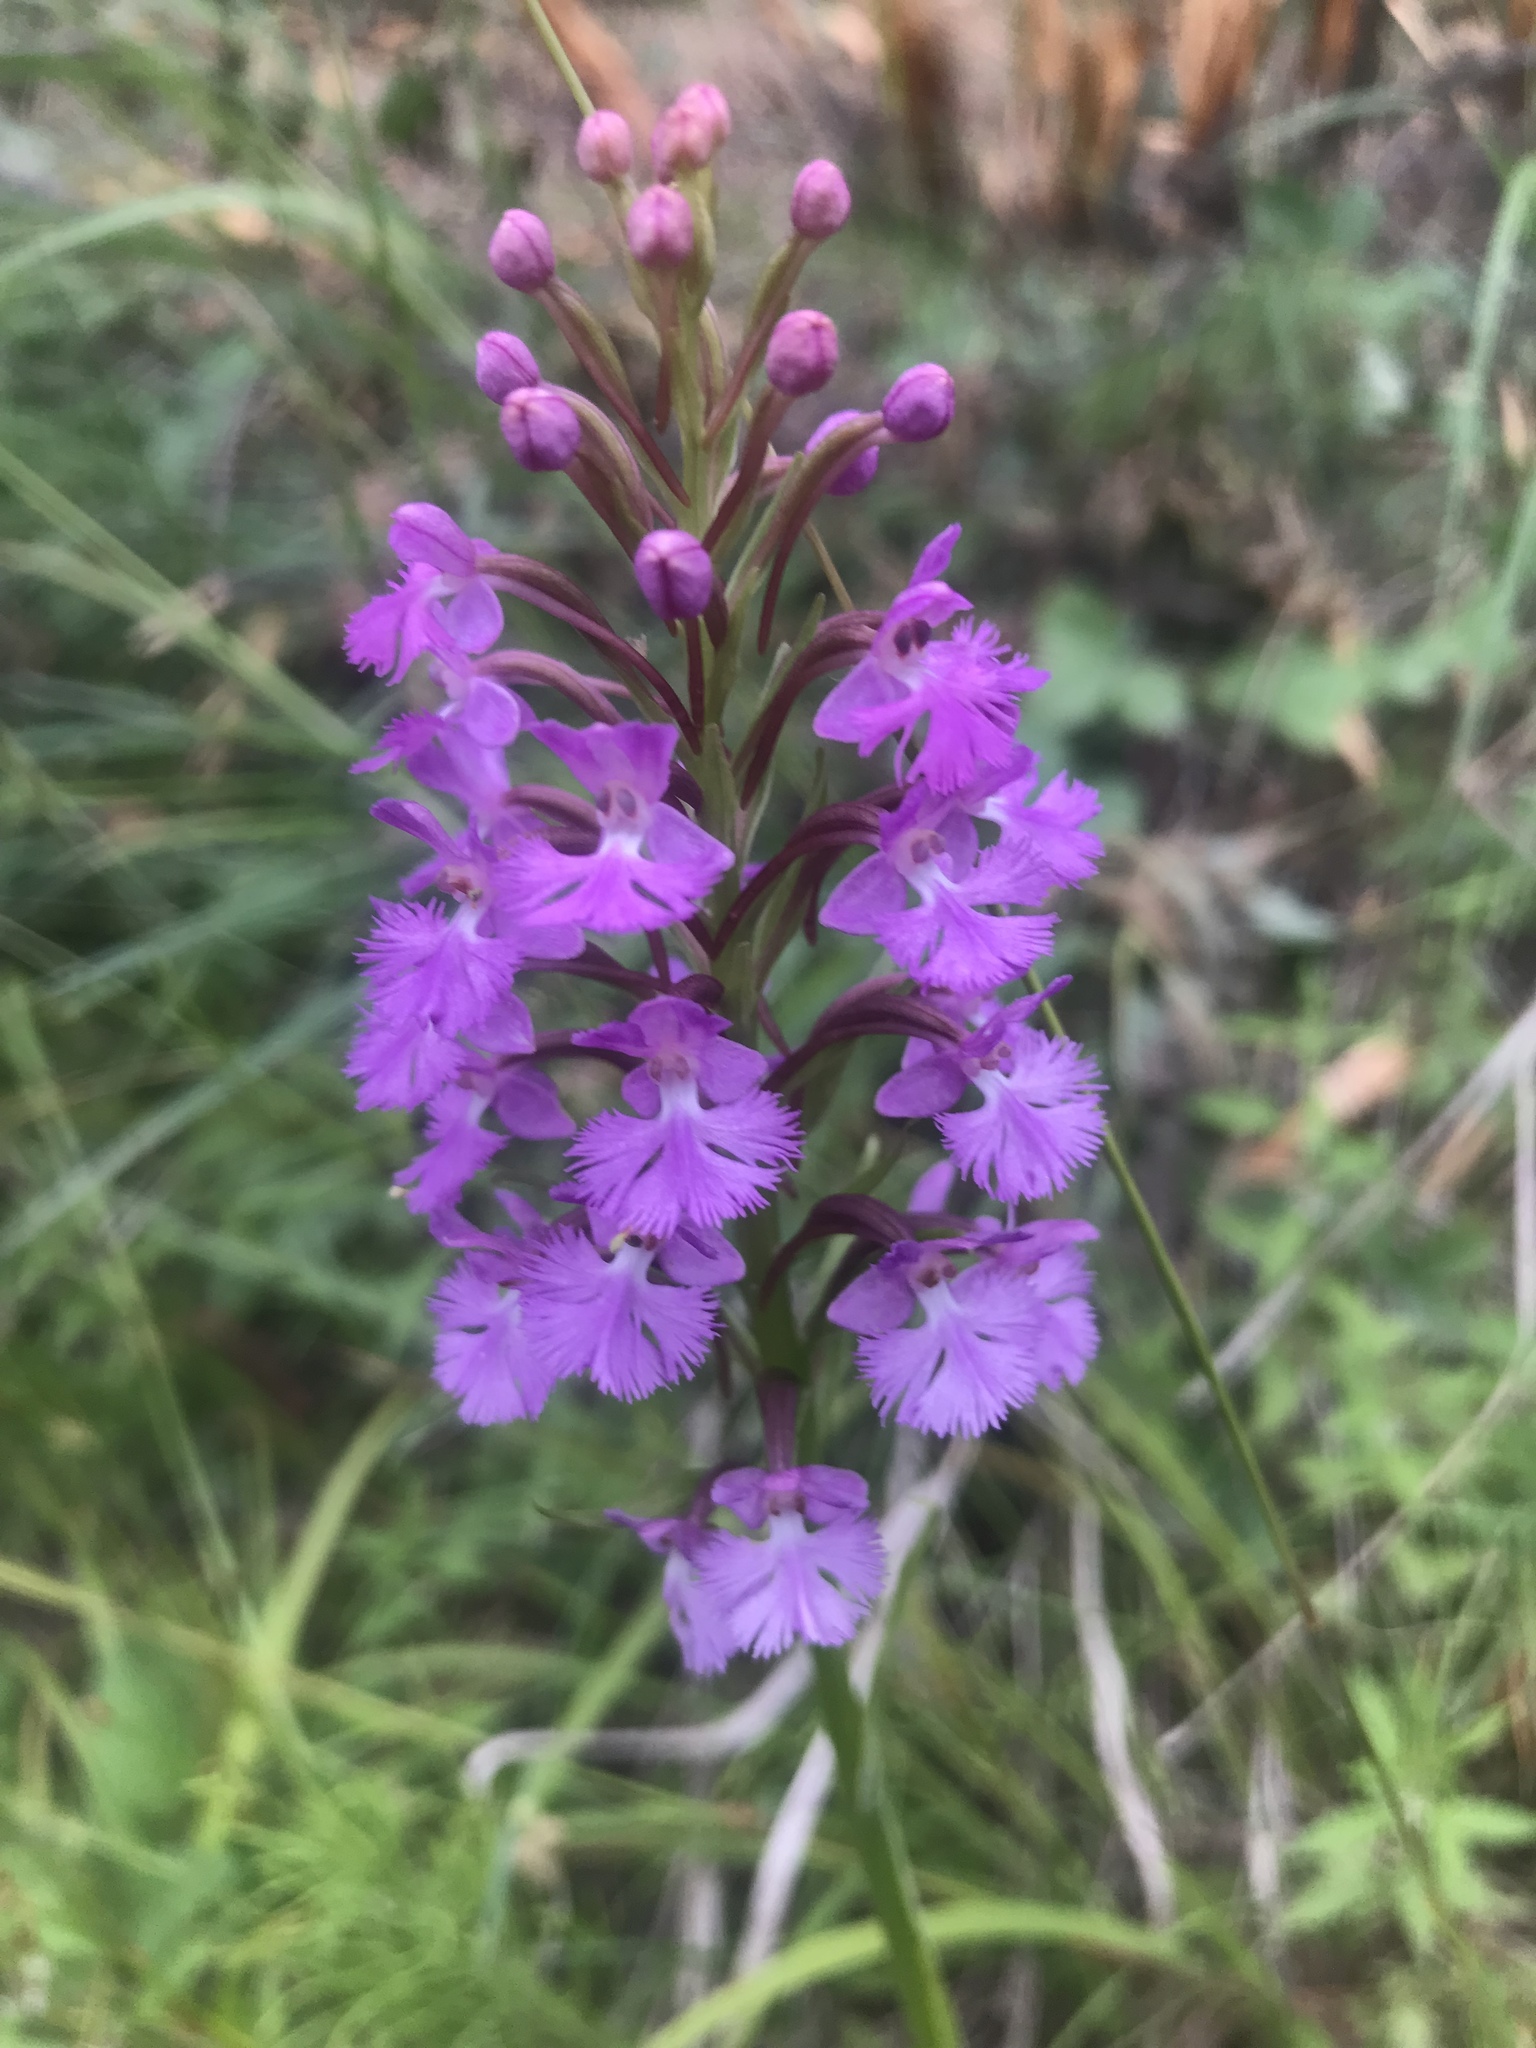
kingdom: Plantae
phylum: Tracheophyta
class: Liliopsida
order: Asparagales
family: Orchidaceae
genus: Platanthera
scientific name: Platanthera psycodes
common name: Lesser purple fringed orchid
